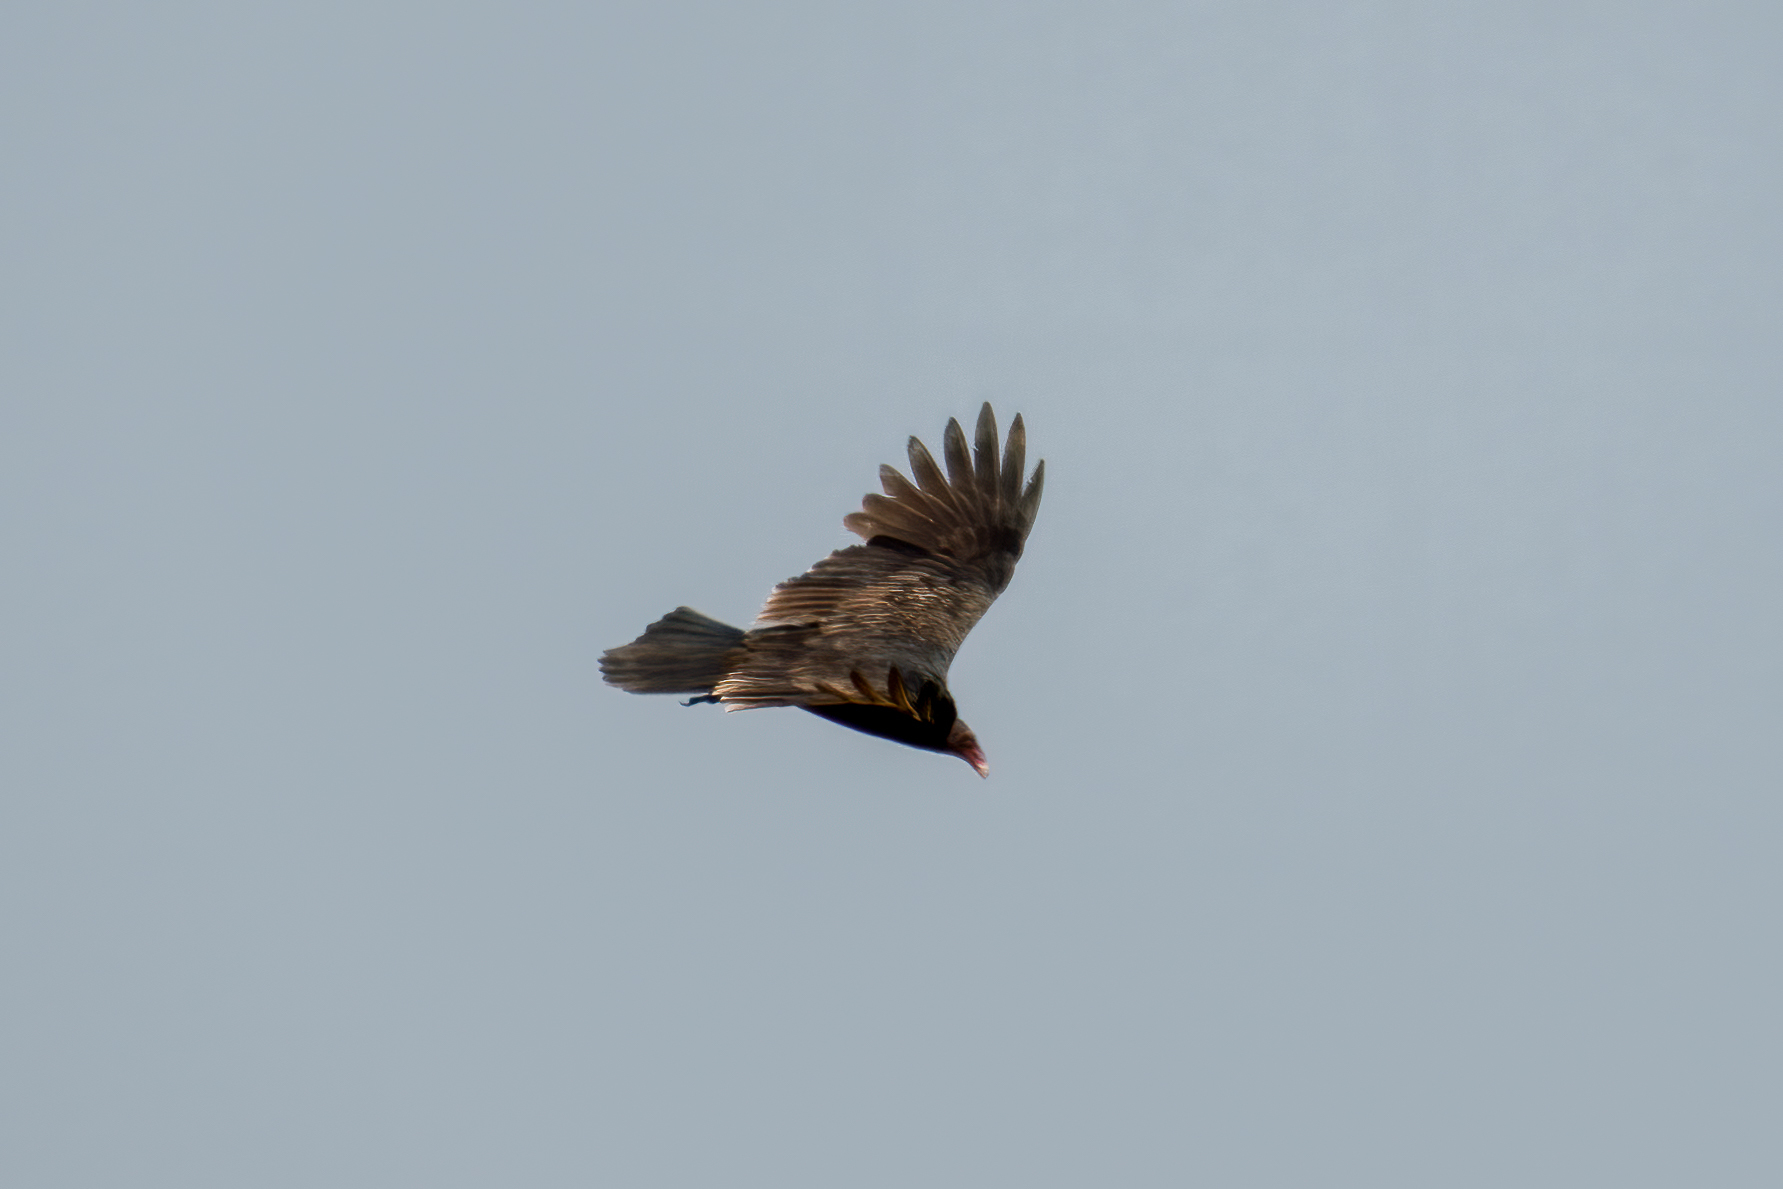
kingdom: Animalia
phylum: Chordata
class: Aves
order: Accipitriformes
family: Cathartidae
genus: Cathartes
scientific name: Cathartes aura
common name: Turkey vulture
